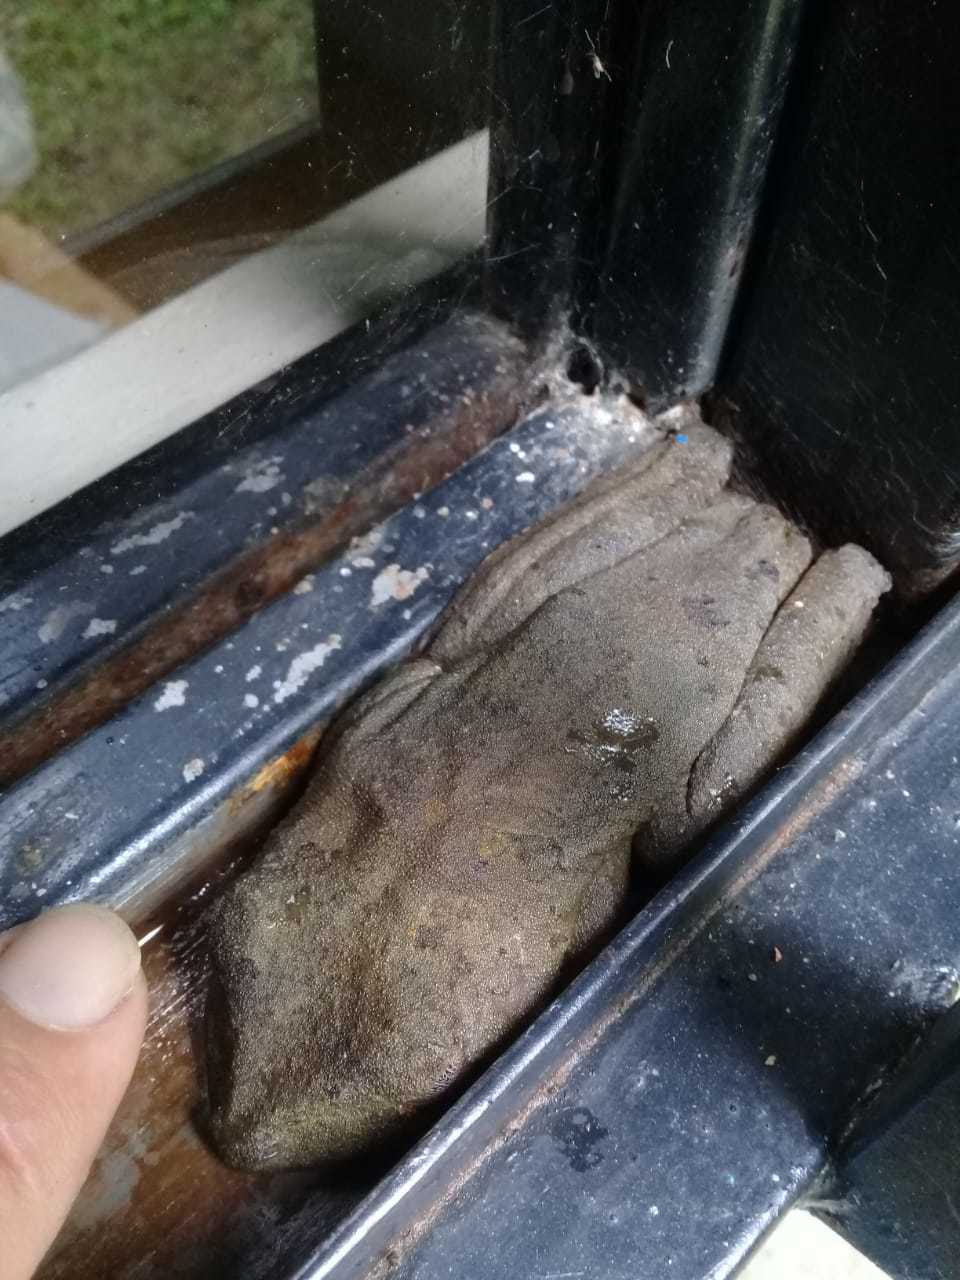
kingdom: Animalia
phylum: Chordata
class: Amphibia
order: Anura
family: Hylidae
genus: Boana
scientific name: Boana platanera
